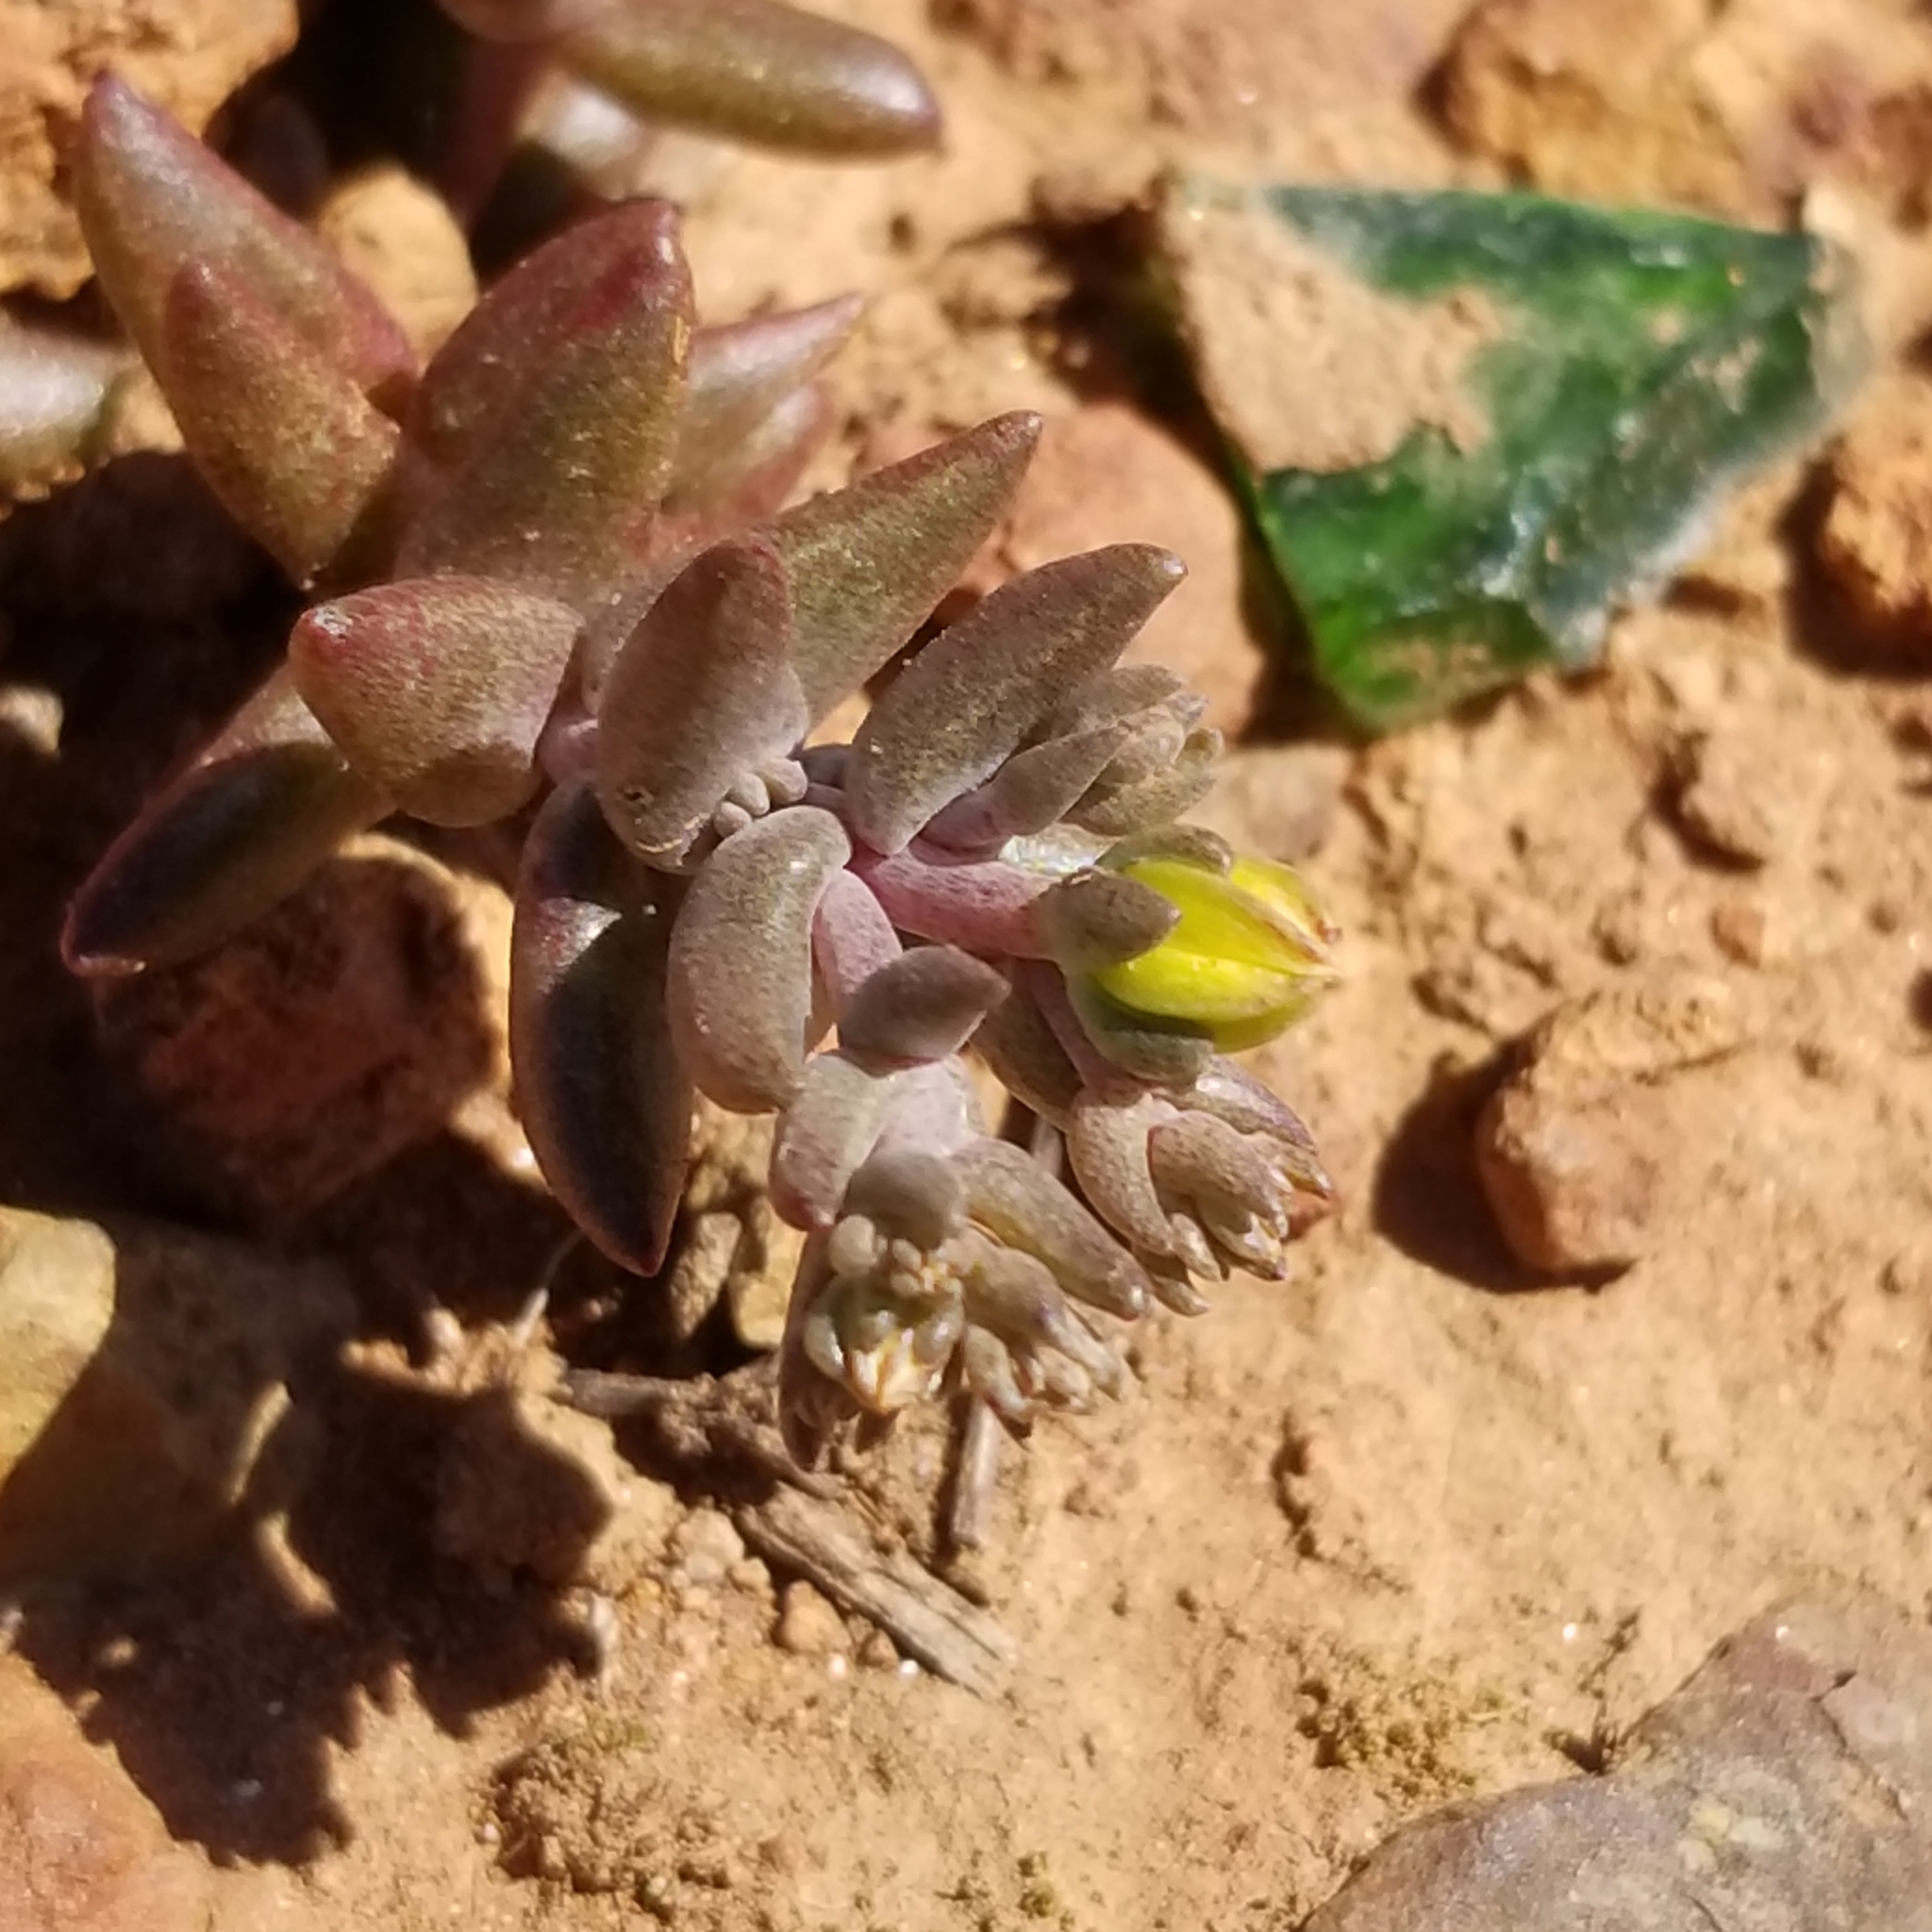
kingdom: Plantae
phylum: Tracheophyta
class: Magnoliopsida
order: Saxifragales
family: Crassulaceae
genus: Dudleya
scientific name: Dudleya variegata
